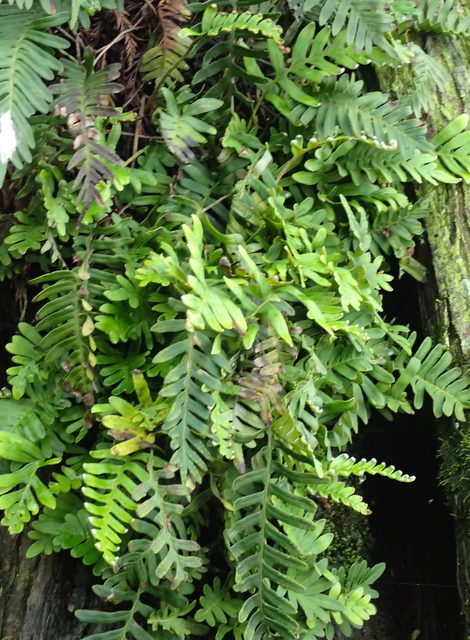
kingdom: Plantae
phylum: Tracheophyta
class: Polypodiopsida
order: Polypodiales
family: Polypodiaceae
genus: Pleopeltis
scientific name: Pleopeltis michauxiana
